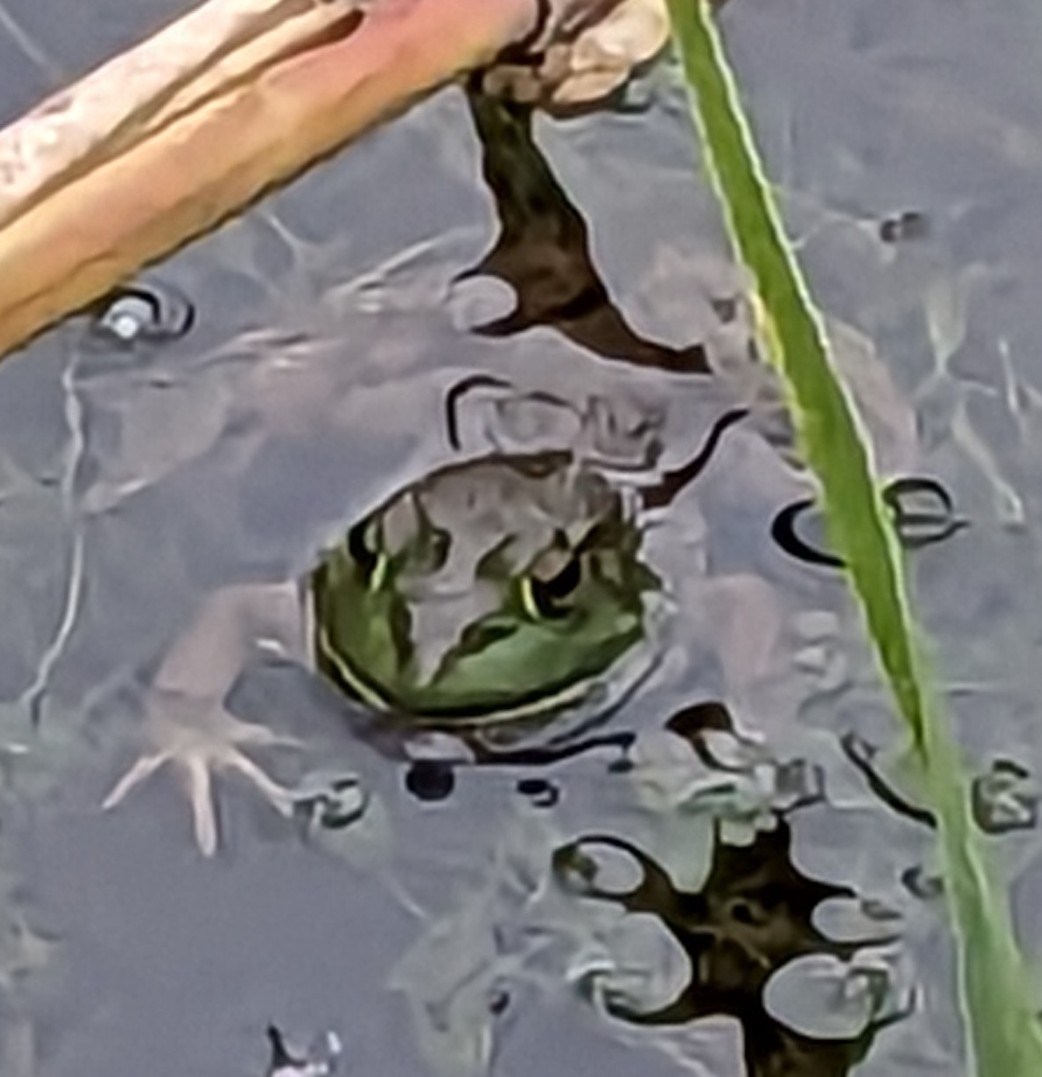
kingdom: Animalia
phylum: Chordata
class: Amphibia
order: Anura
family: Ranidae
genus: Lithobates
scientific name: Lithobates catesbeianus
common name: American bullfrog
